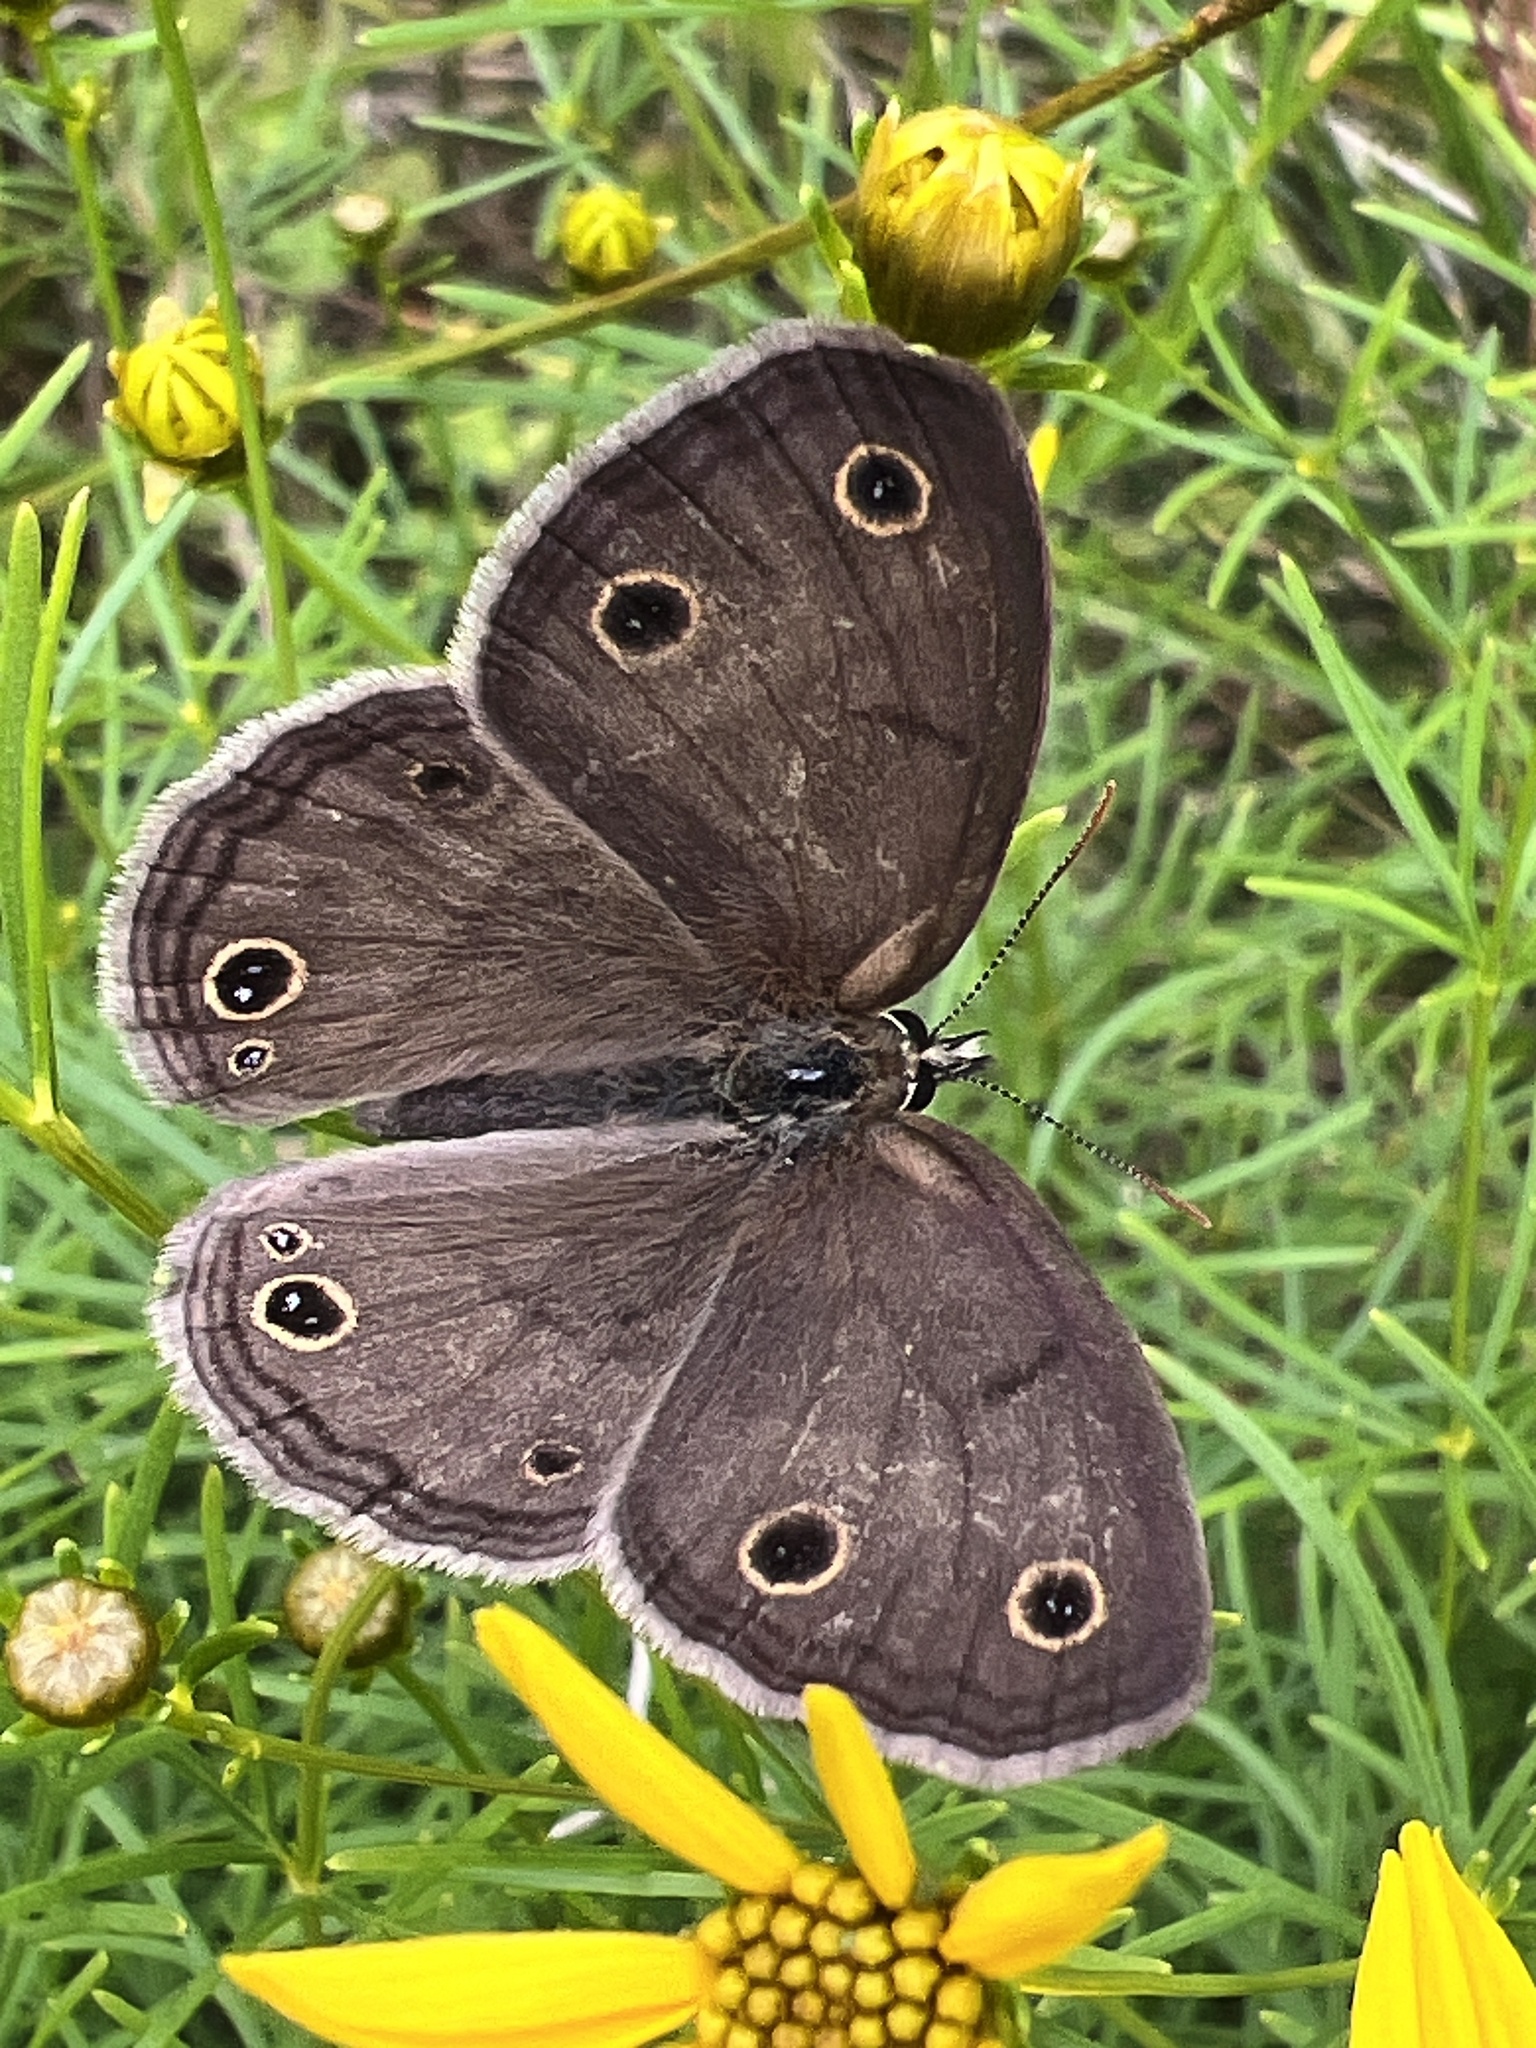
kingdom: Animalia
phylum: Arthropoda
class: Insecta
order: Lepidoptera
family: Nymphalidae
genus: Euptychia
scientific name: Euptychia cymela
